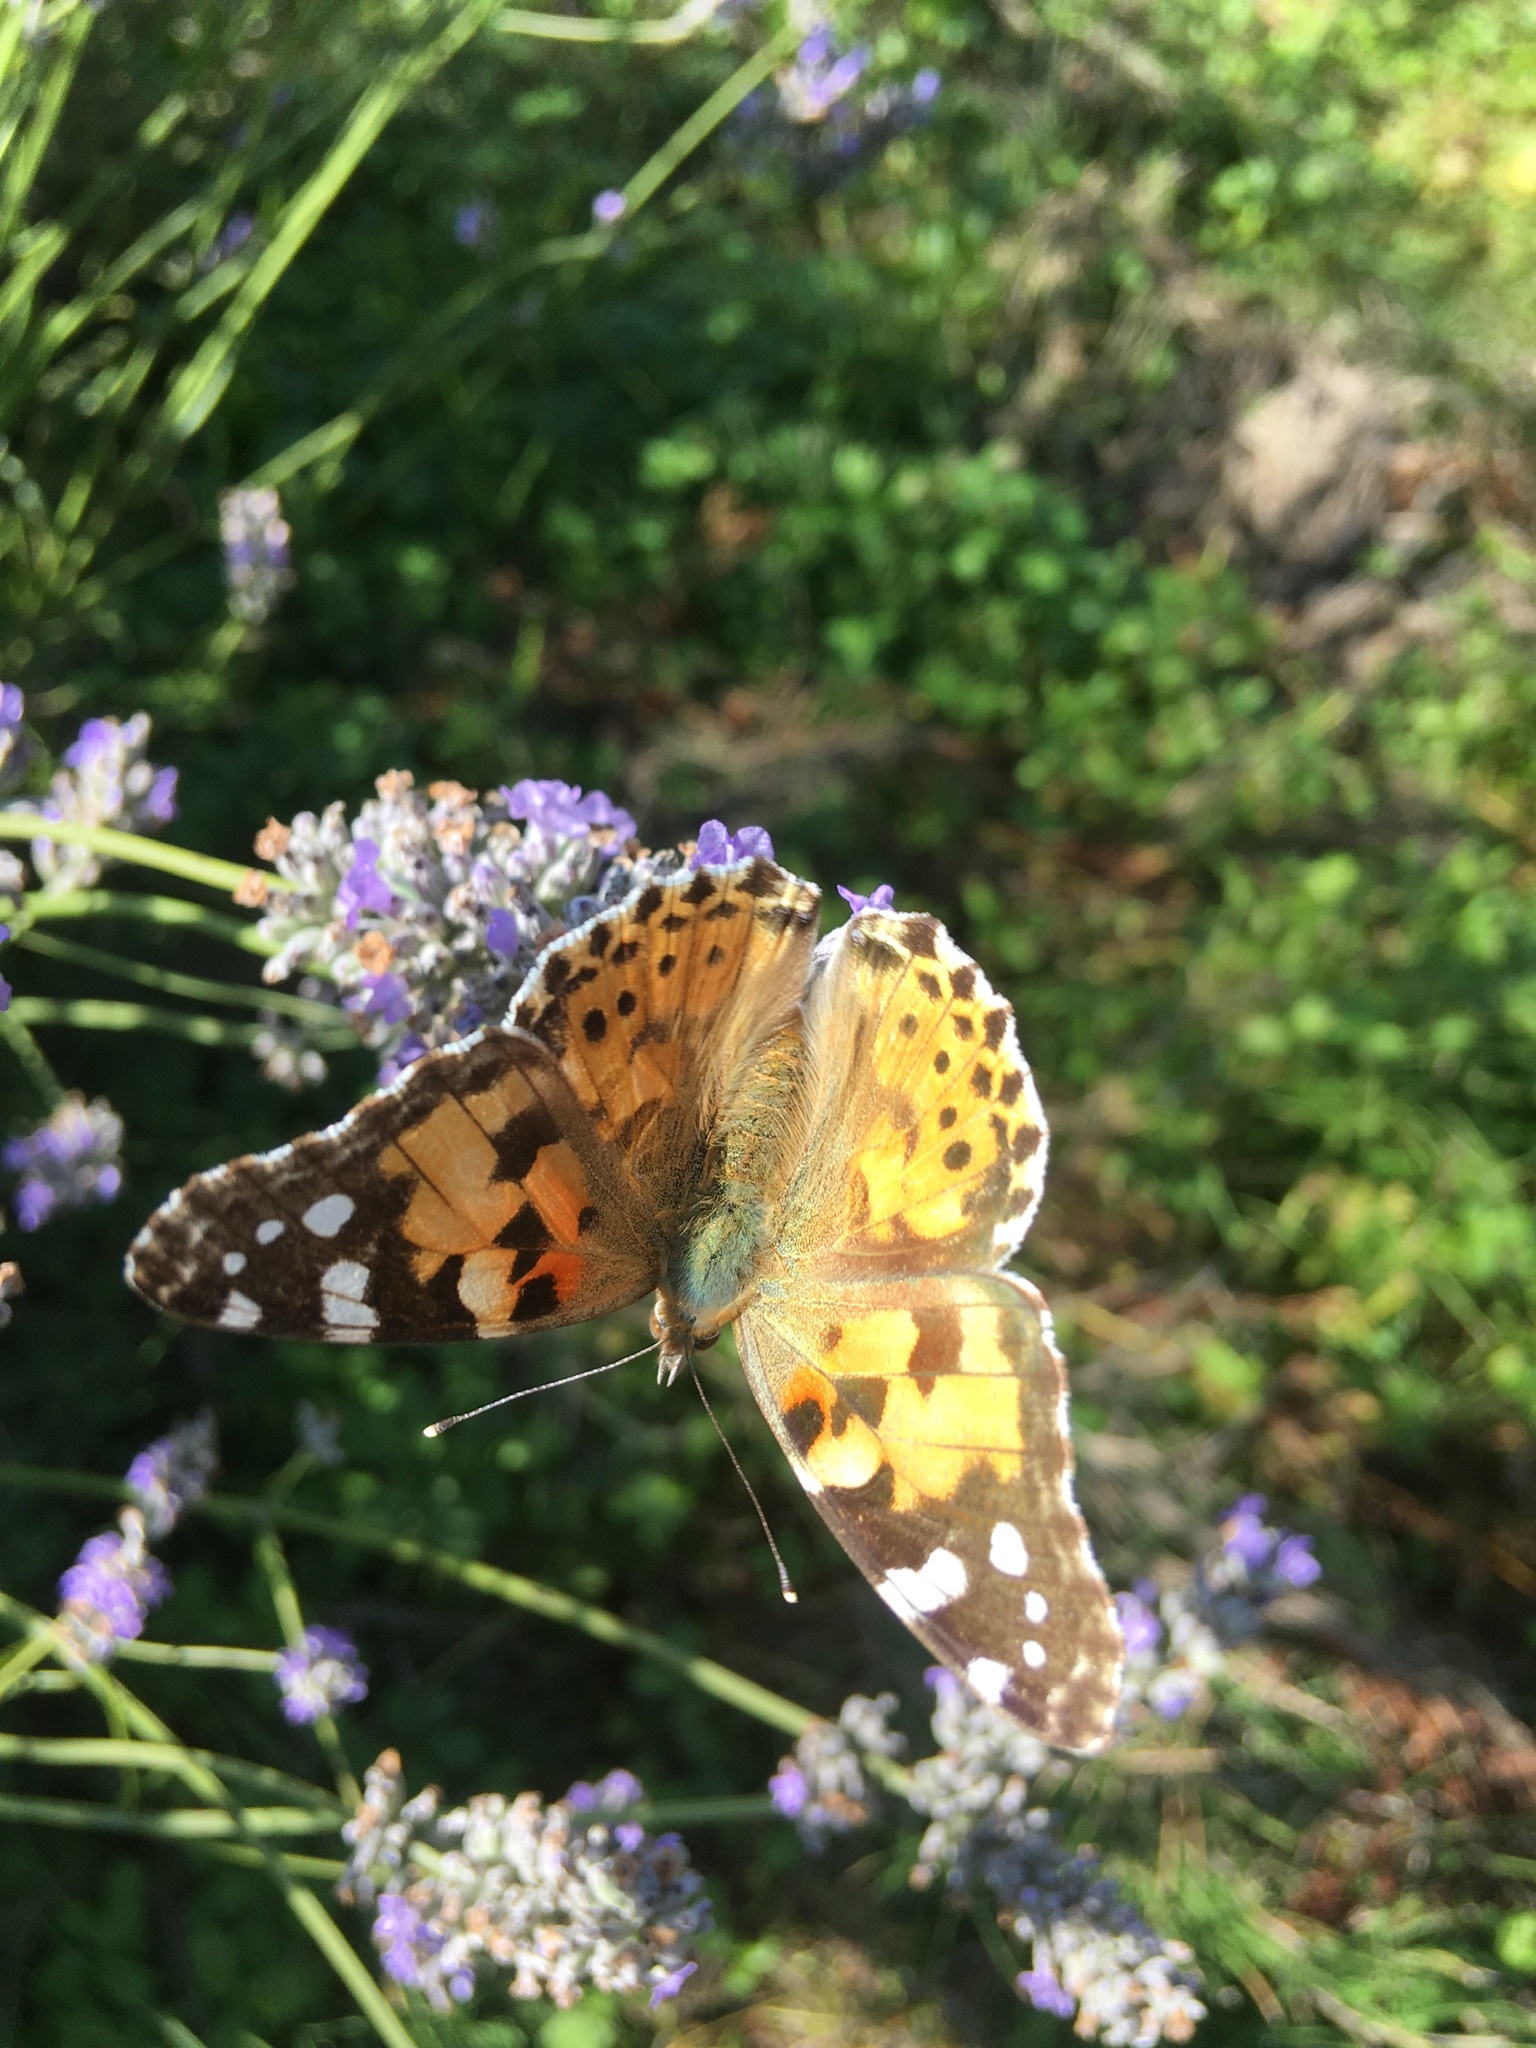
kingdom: Animalia
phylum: Arthropoda
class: Insecta
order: Lepidoptera
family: Nymphalidae
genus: Vanessa
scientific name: Vanessa cardui
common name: Painted lady
